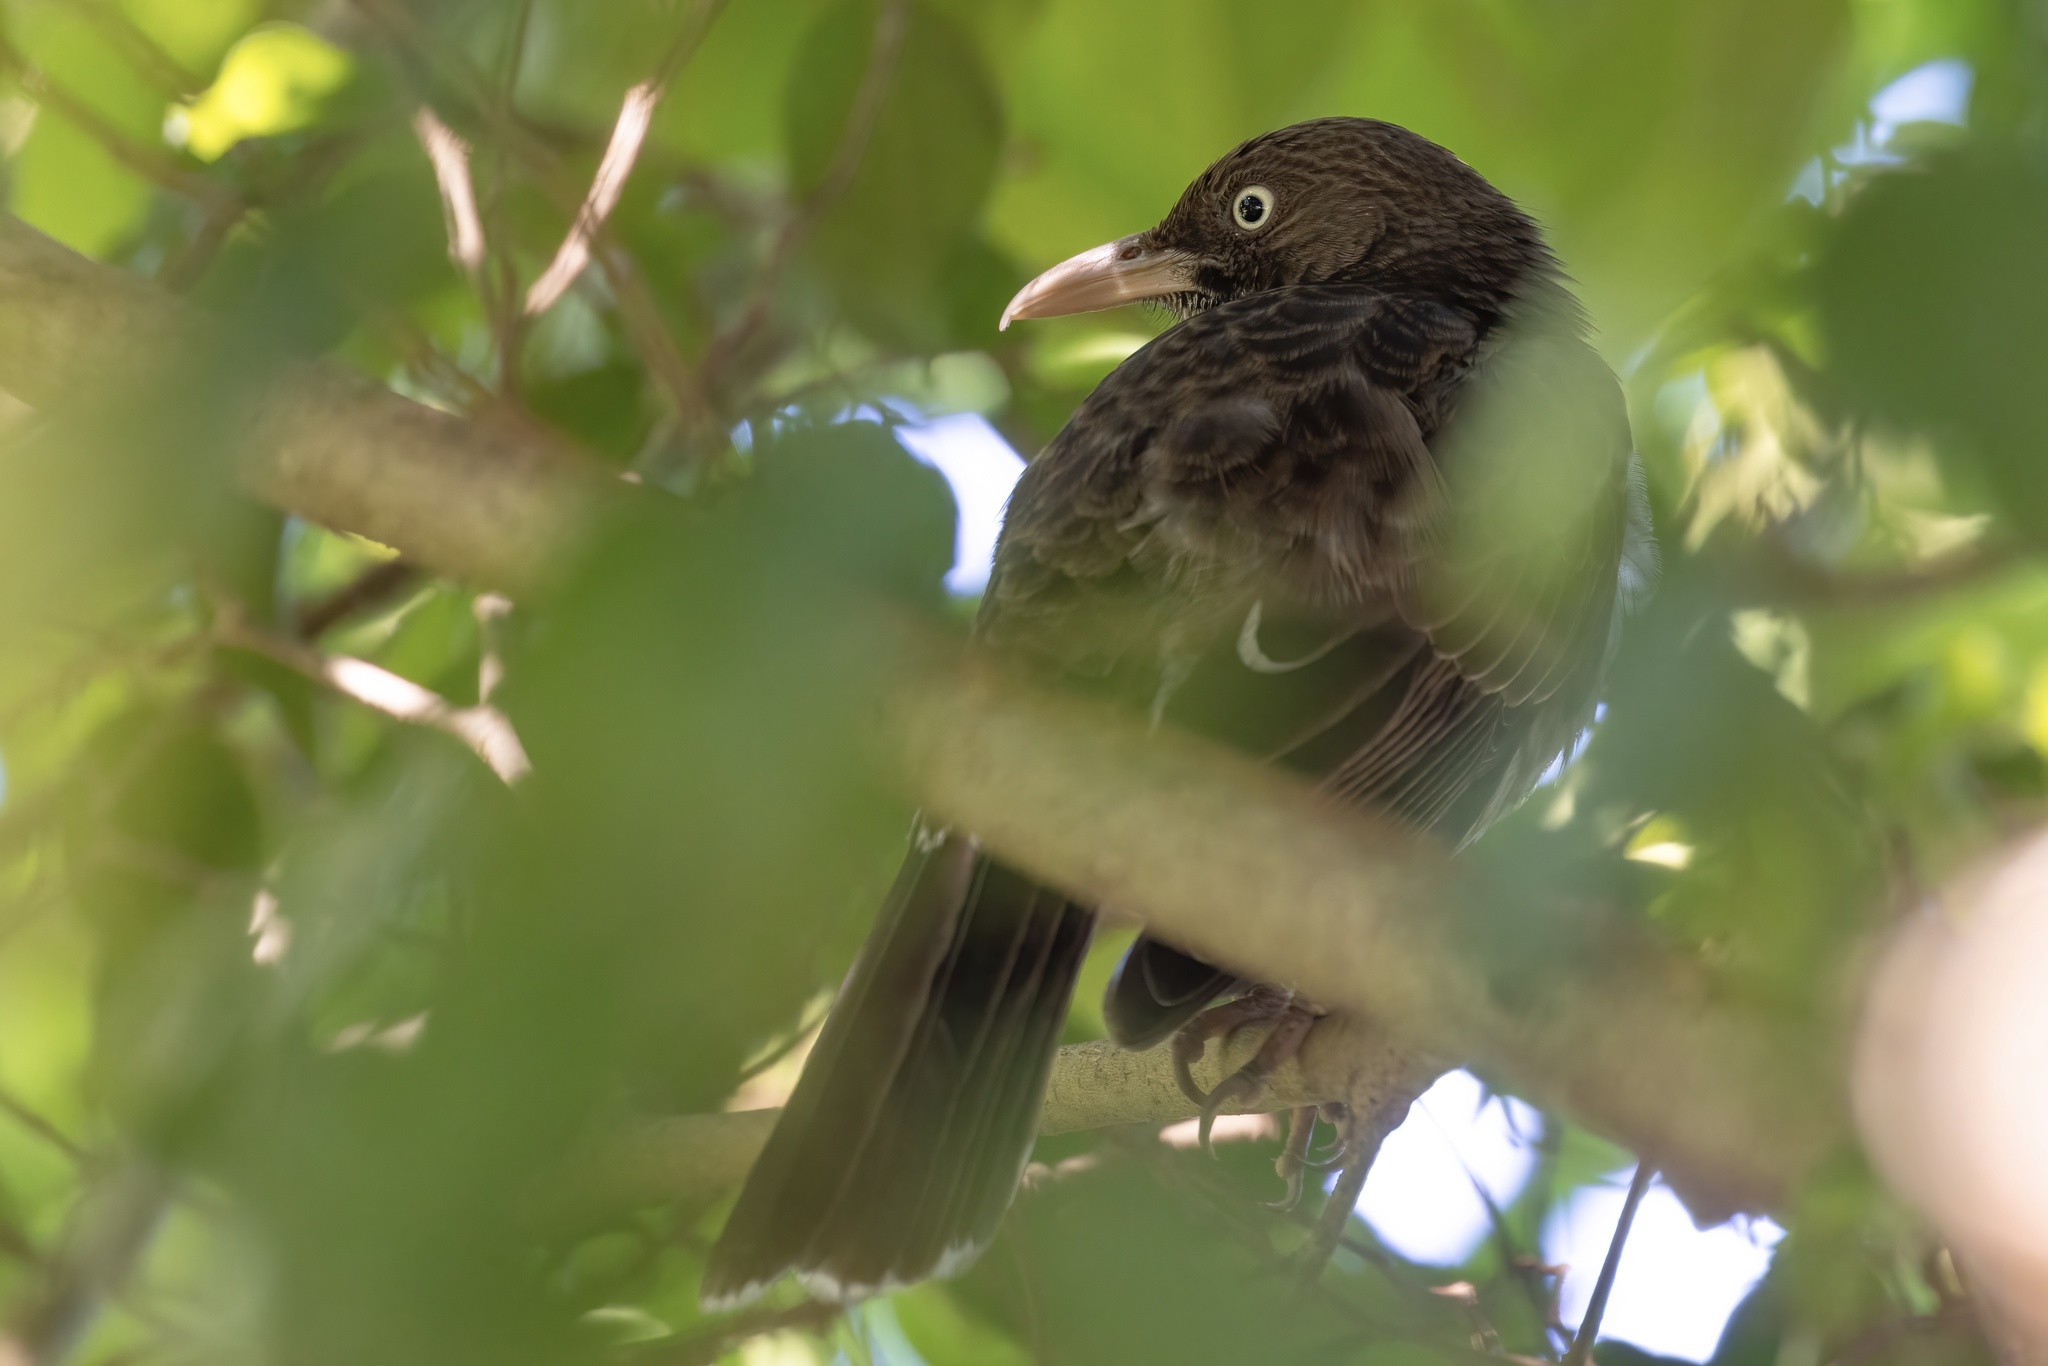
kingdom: Animalia
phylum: Chordata
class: Aves
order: Passeriformes
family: Mimidae
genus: Margarops
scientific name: Margarops fuscatus
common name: Pearly-eyed thrasher
